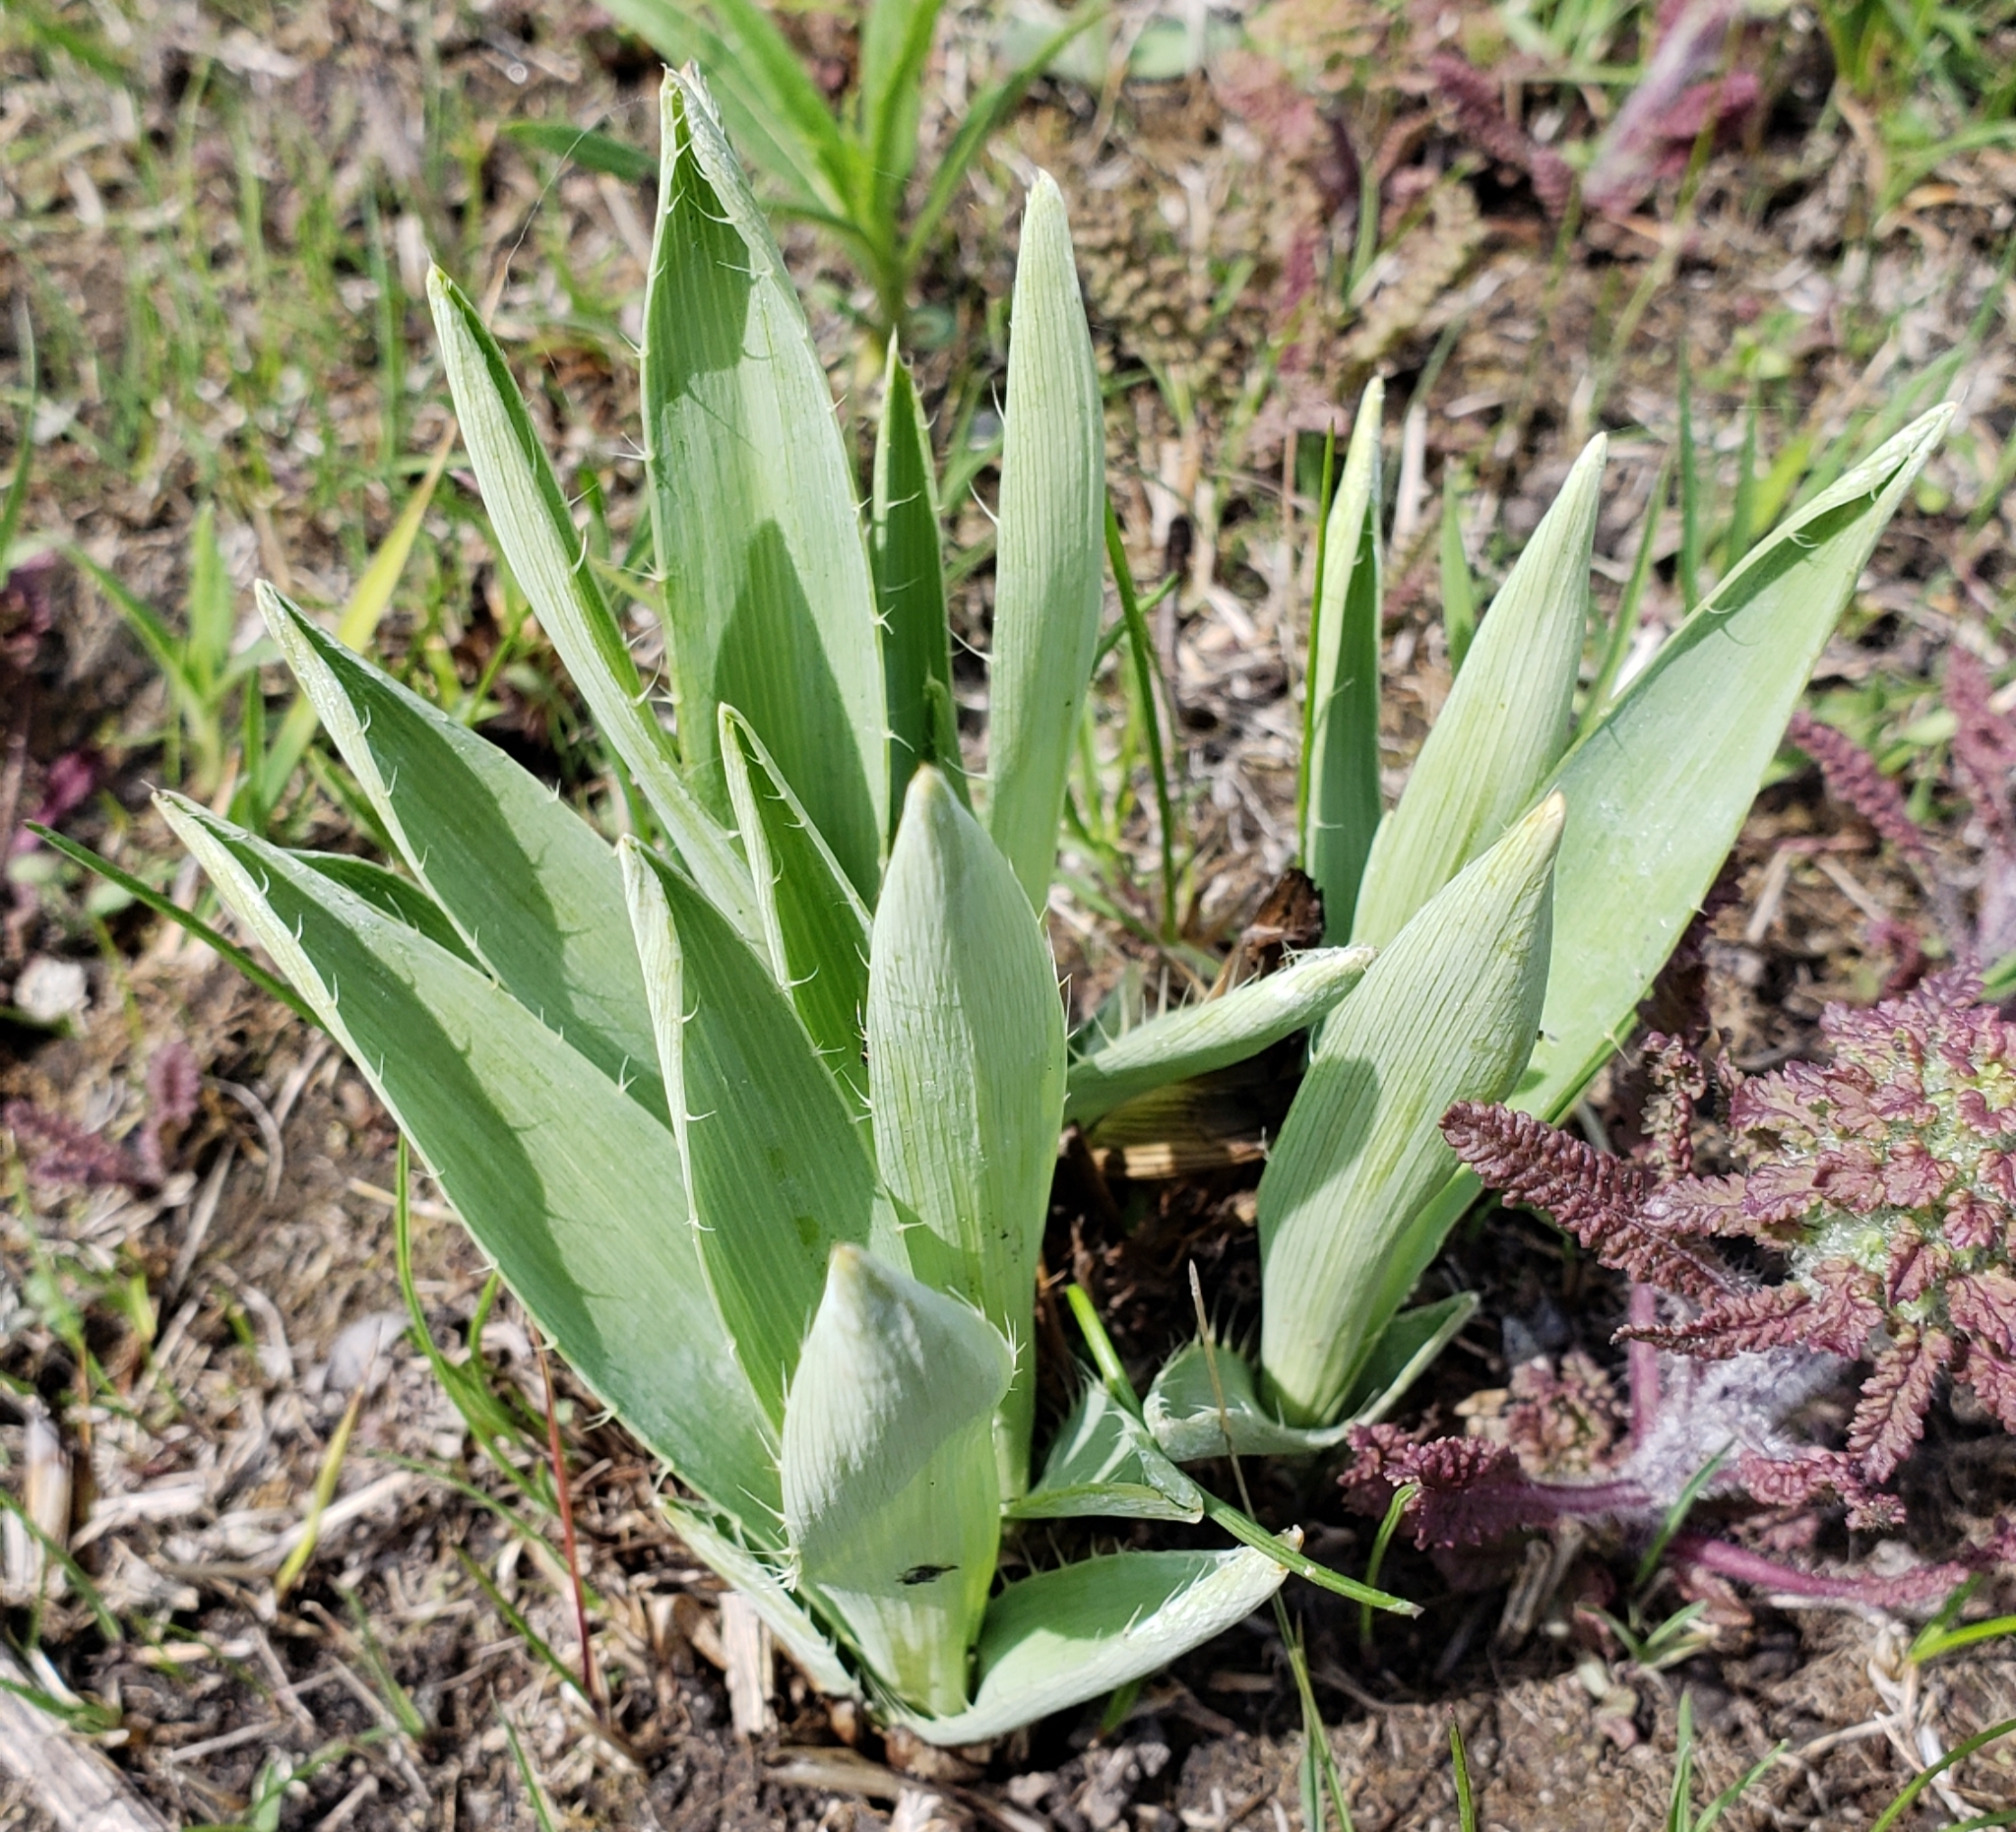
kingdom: Plantae
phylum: Tracheophyta
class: Magnoliopsida
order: Apiales
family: Apiaceae
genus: Eryngium
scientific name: Eryngium yuccifolium
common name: Button eryngo
